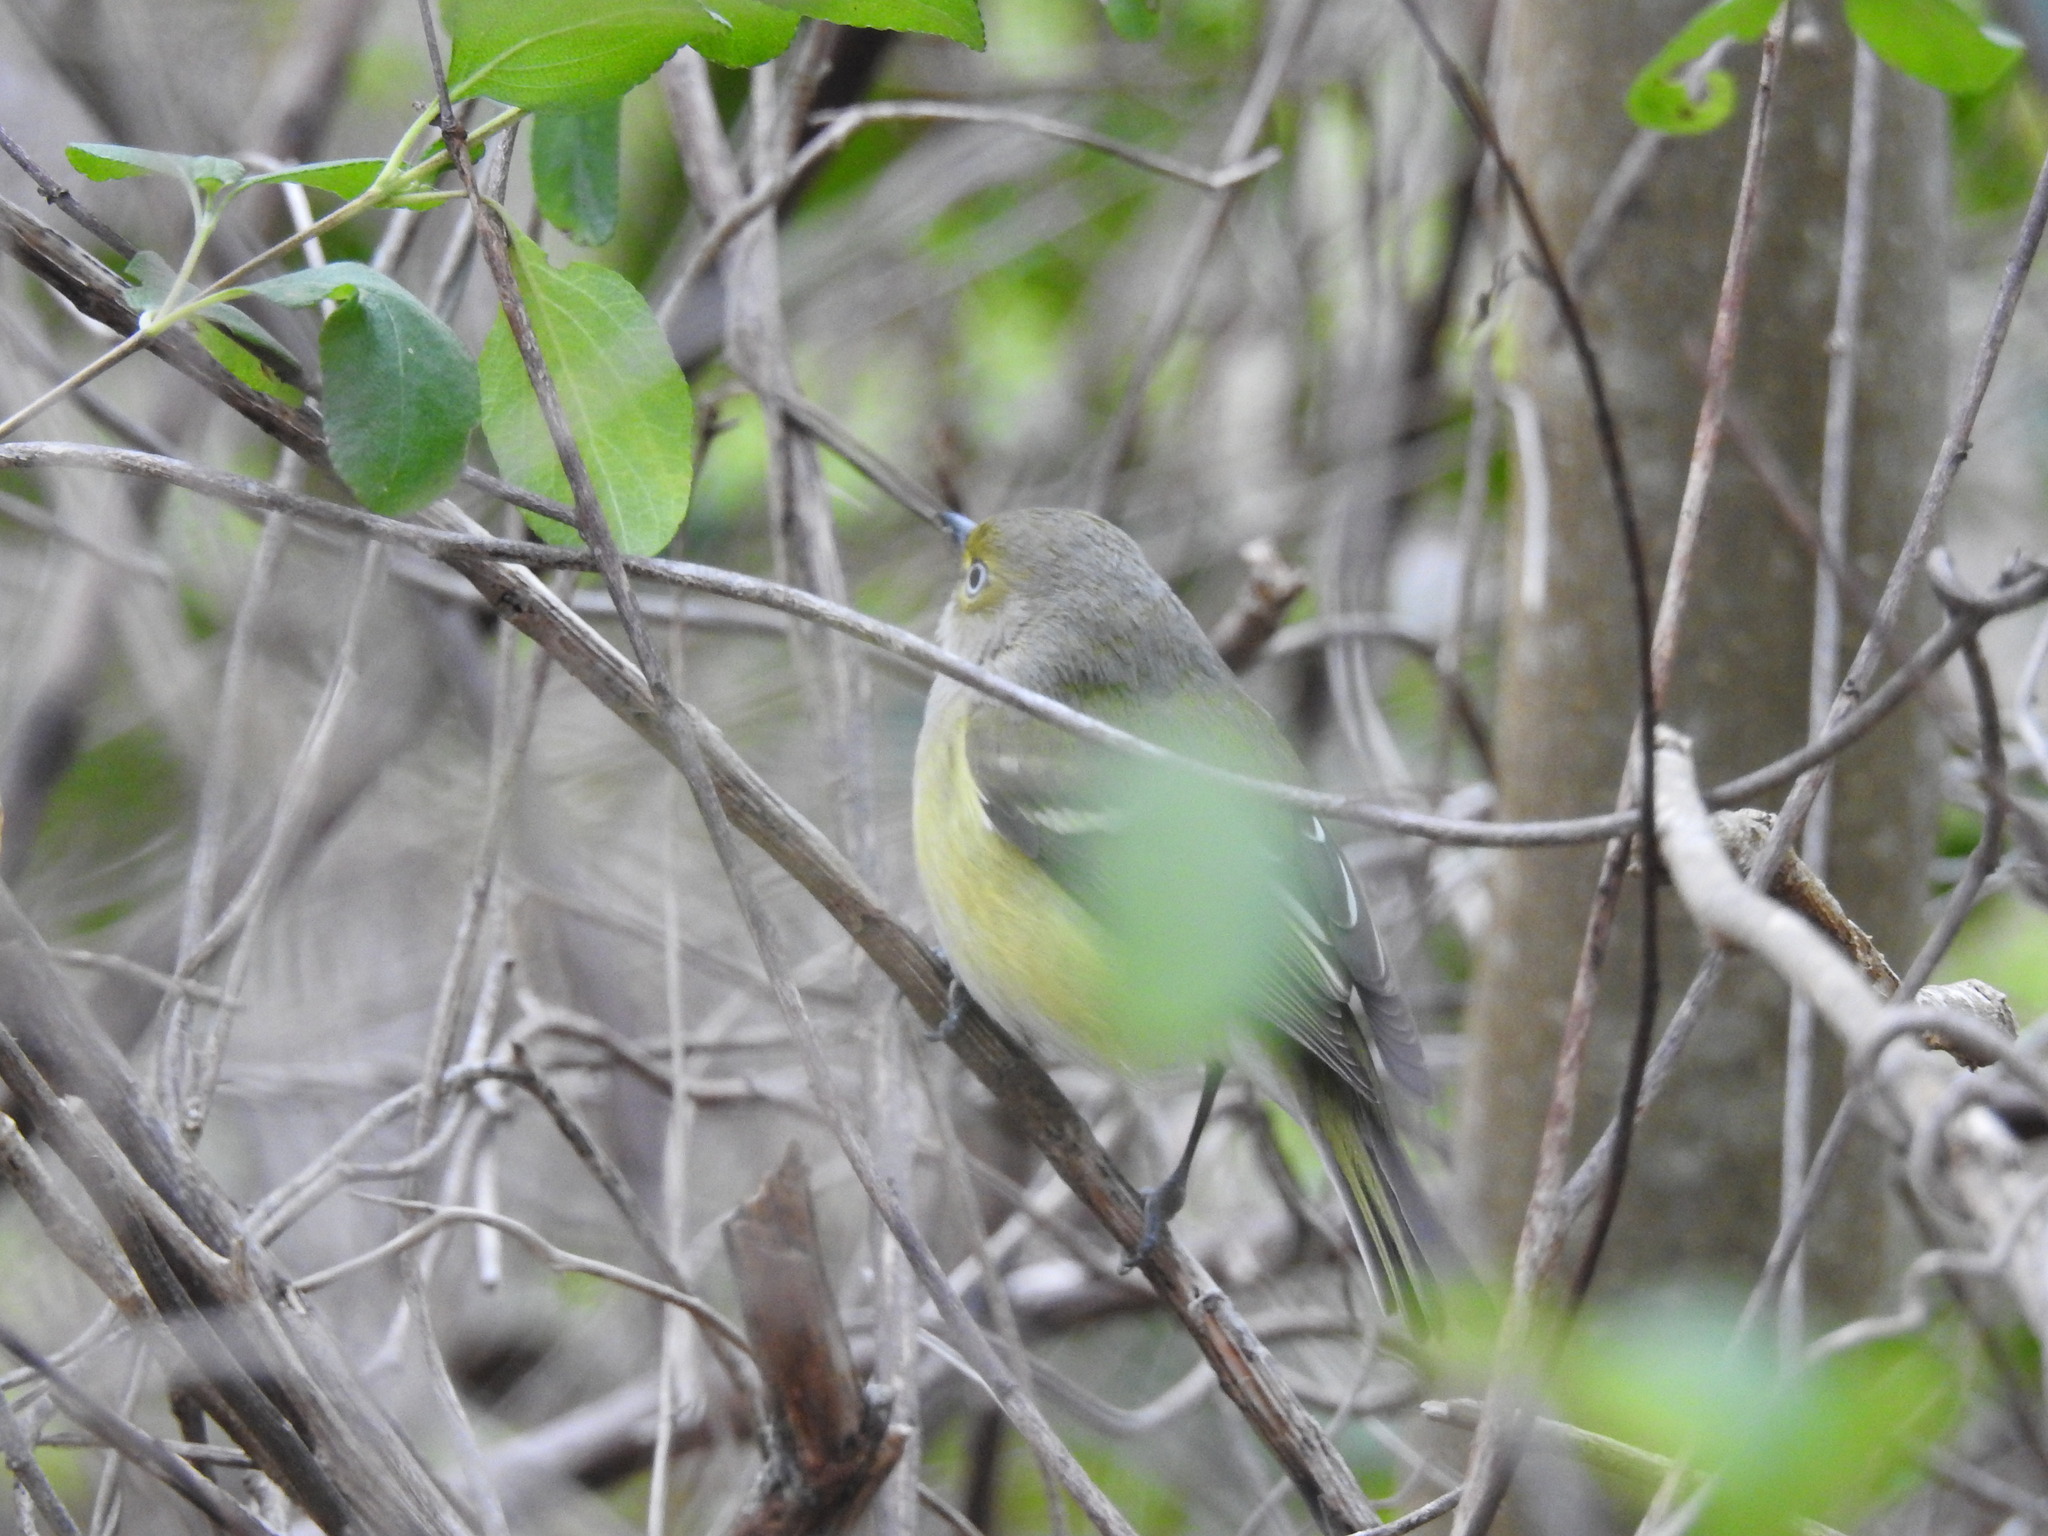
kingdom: Animalia
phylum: Chordata
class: Aves
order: Passeriformes
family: Vireonidae
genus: Vireo
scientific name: Vireo griseus
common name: White-eyed vireo
